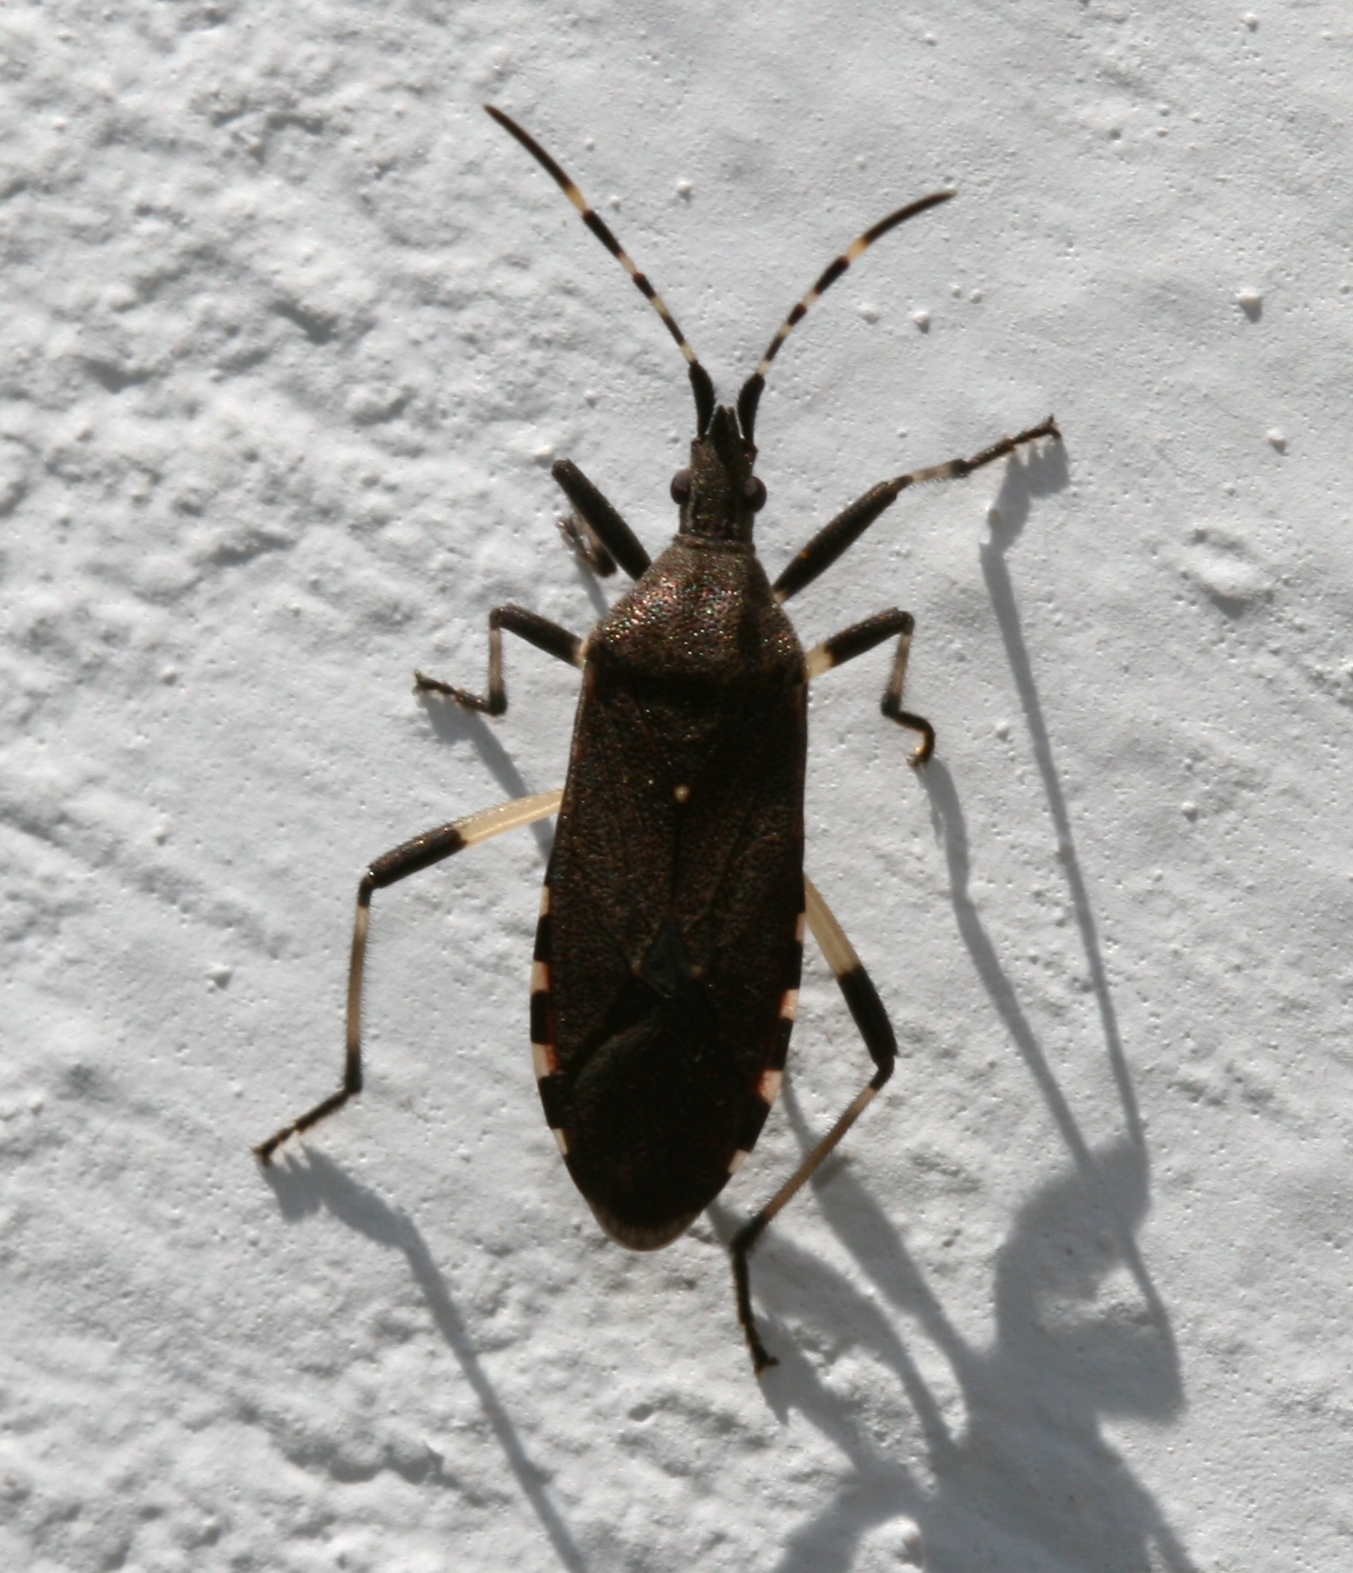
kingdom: Animalia
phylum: Arthropoda
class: Insecta
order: Hemiptera
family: Stenocephalidae
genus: Dicranocephalus
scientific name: Dicranocephalus agilis
